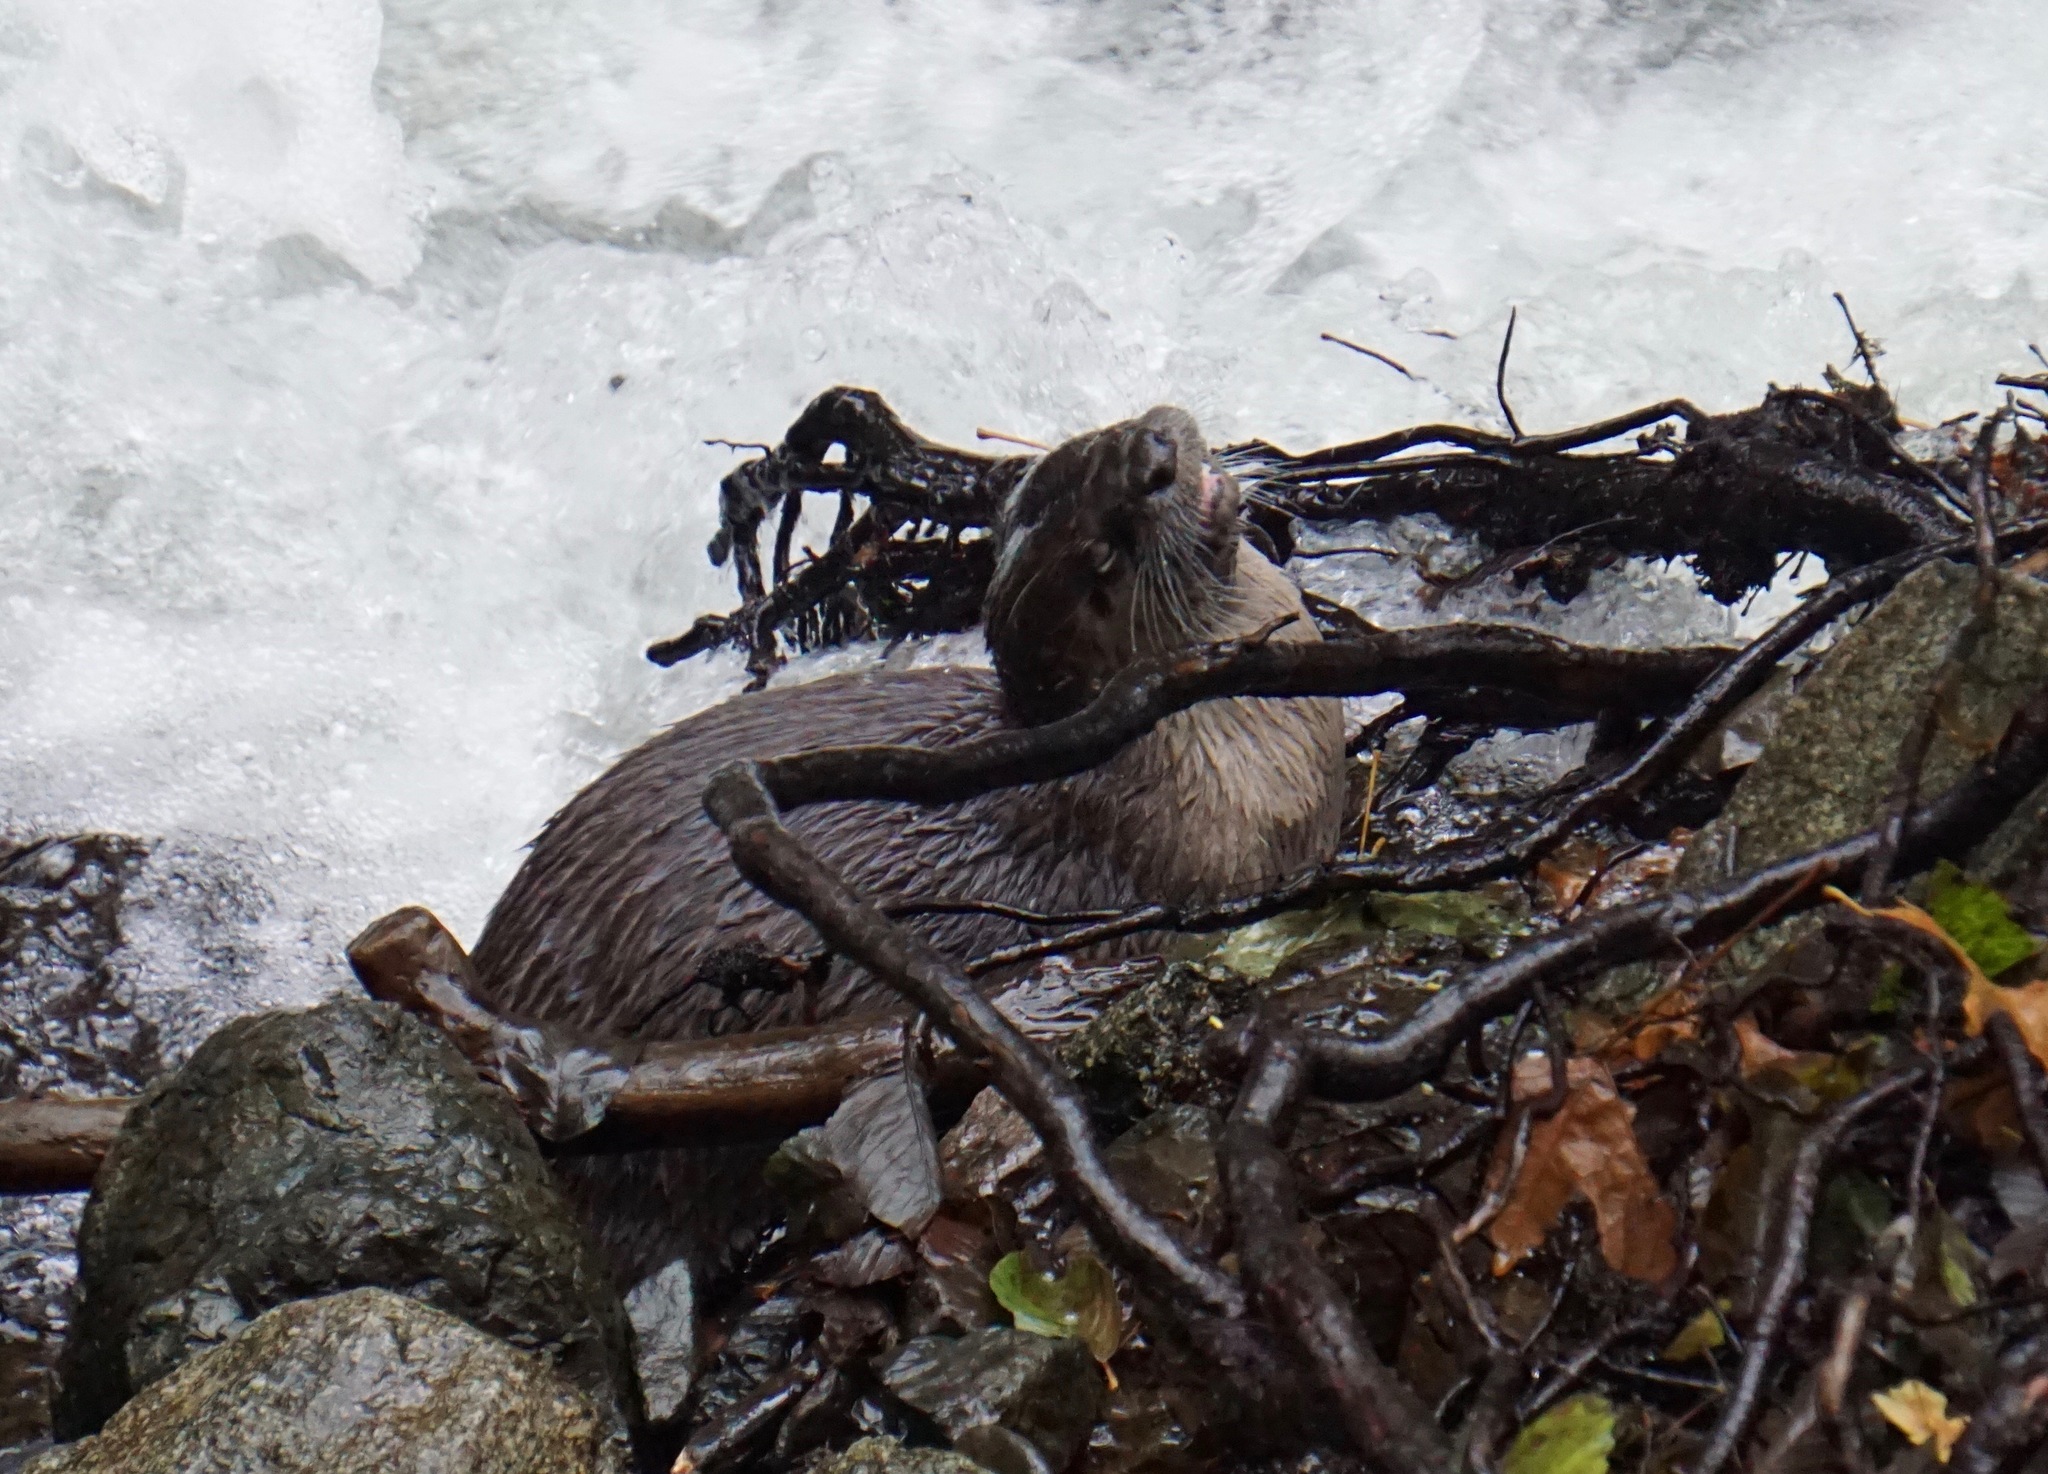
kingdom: Animalia
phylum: Chordata
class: Mammalia
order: Carnivora
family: Mustelidae
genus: Lontra
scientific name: Lontra canadensis
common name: North american river otter
